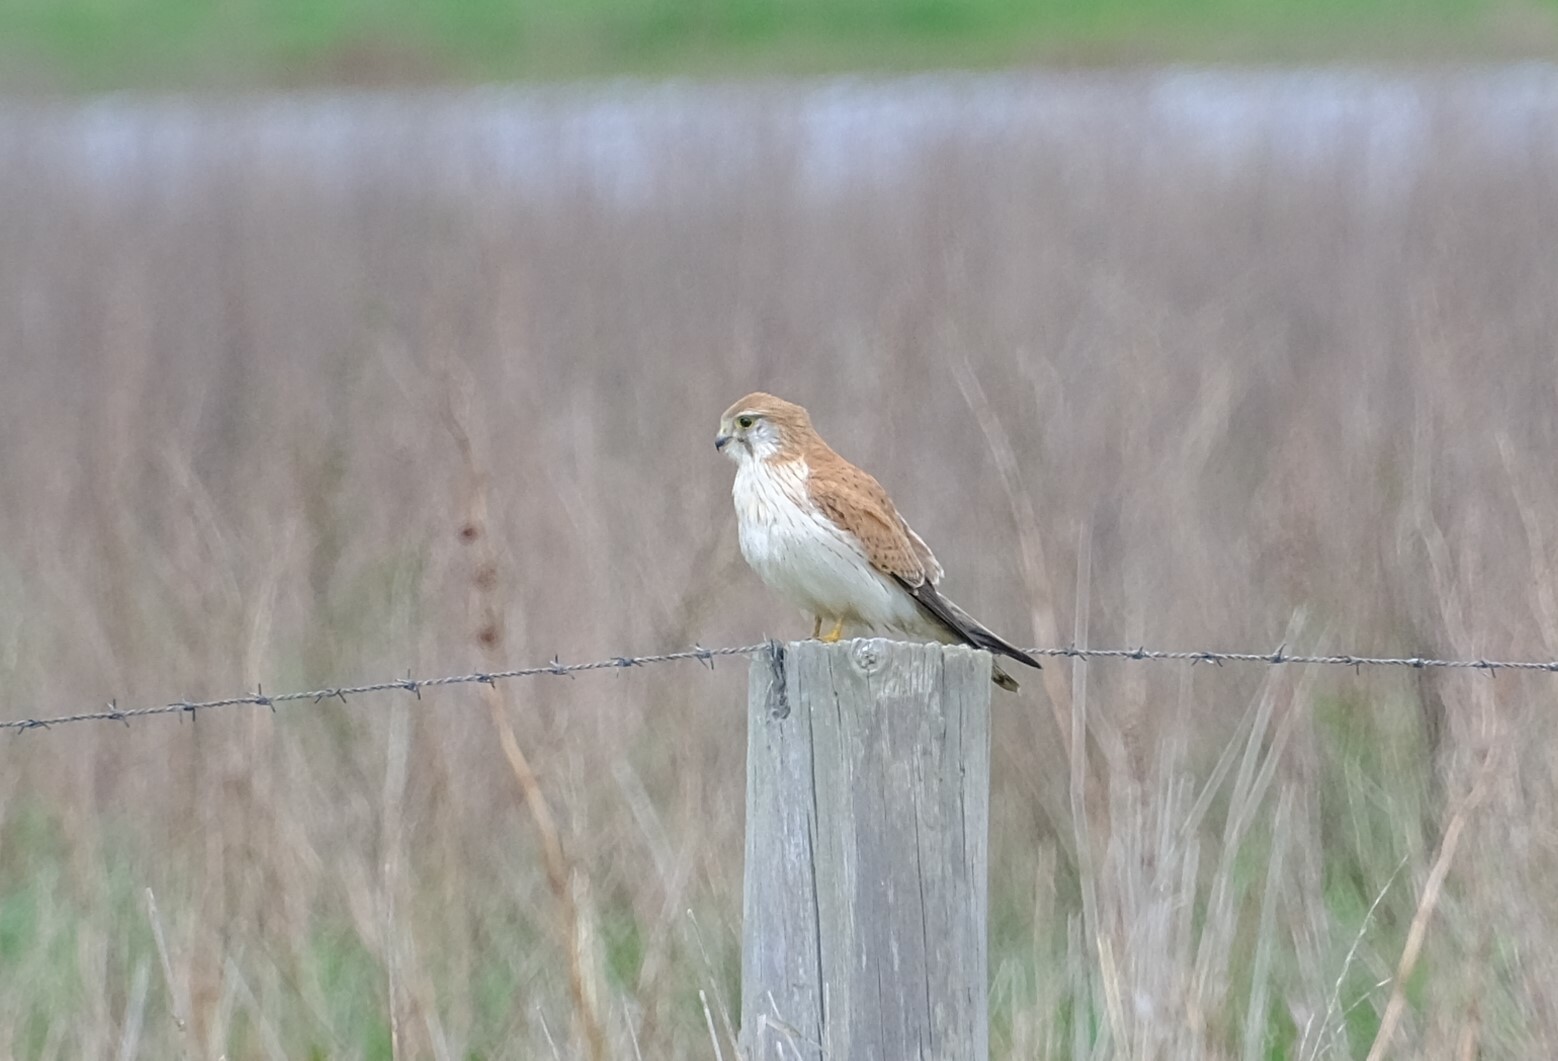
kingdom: Animalia
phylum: Chordata
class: Aves
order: Falconiformes
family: Falconidae
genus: Falco
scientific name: Falco cenchroides
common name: Nankeen kestrel
